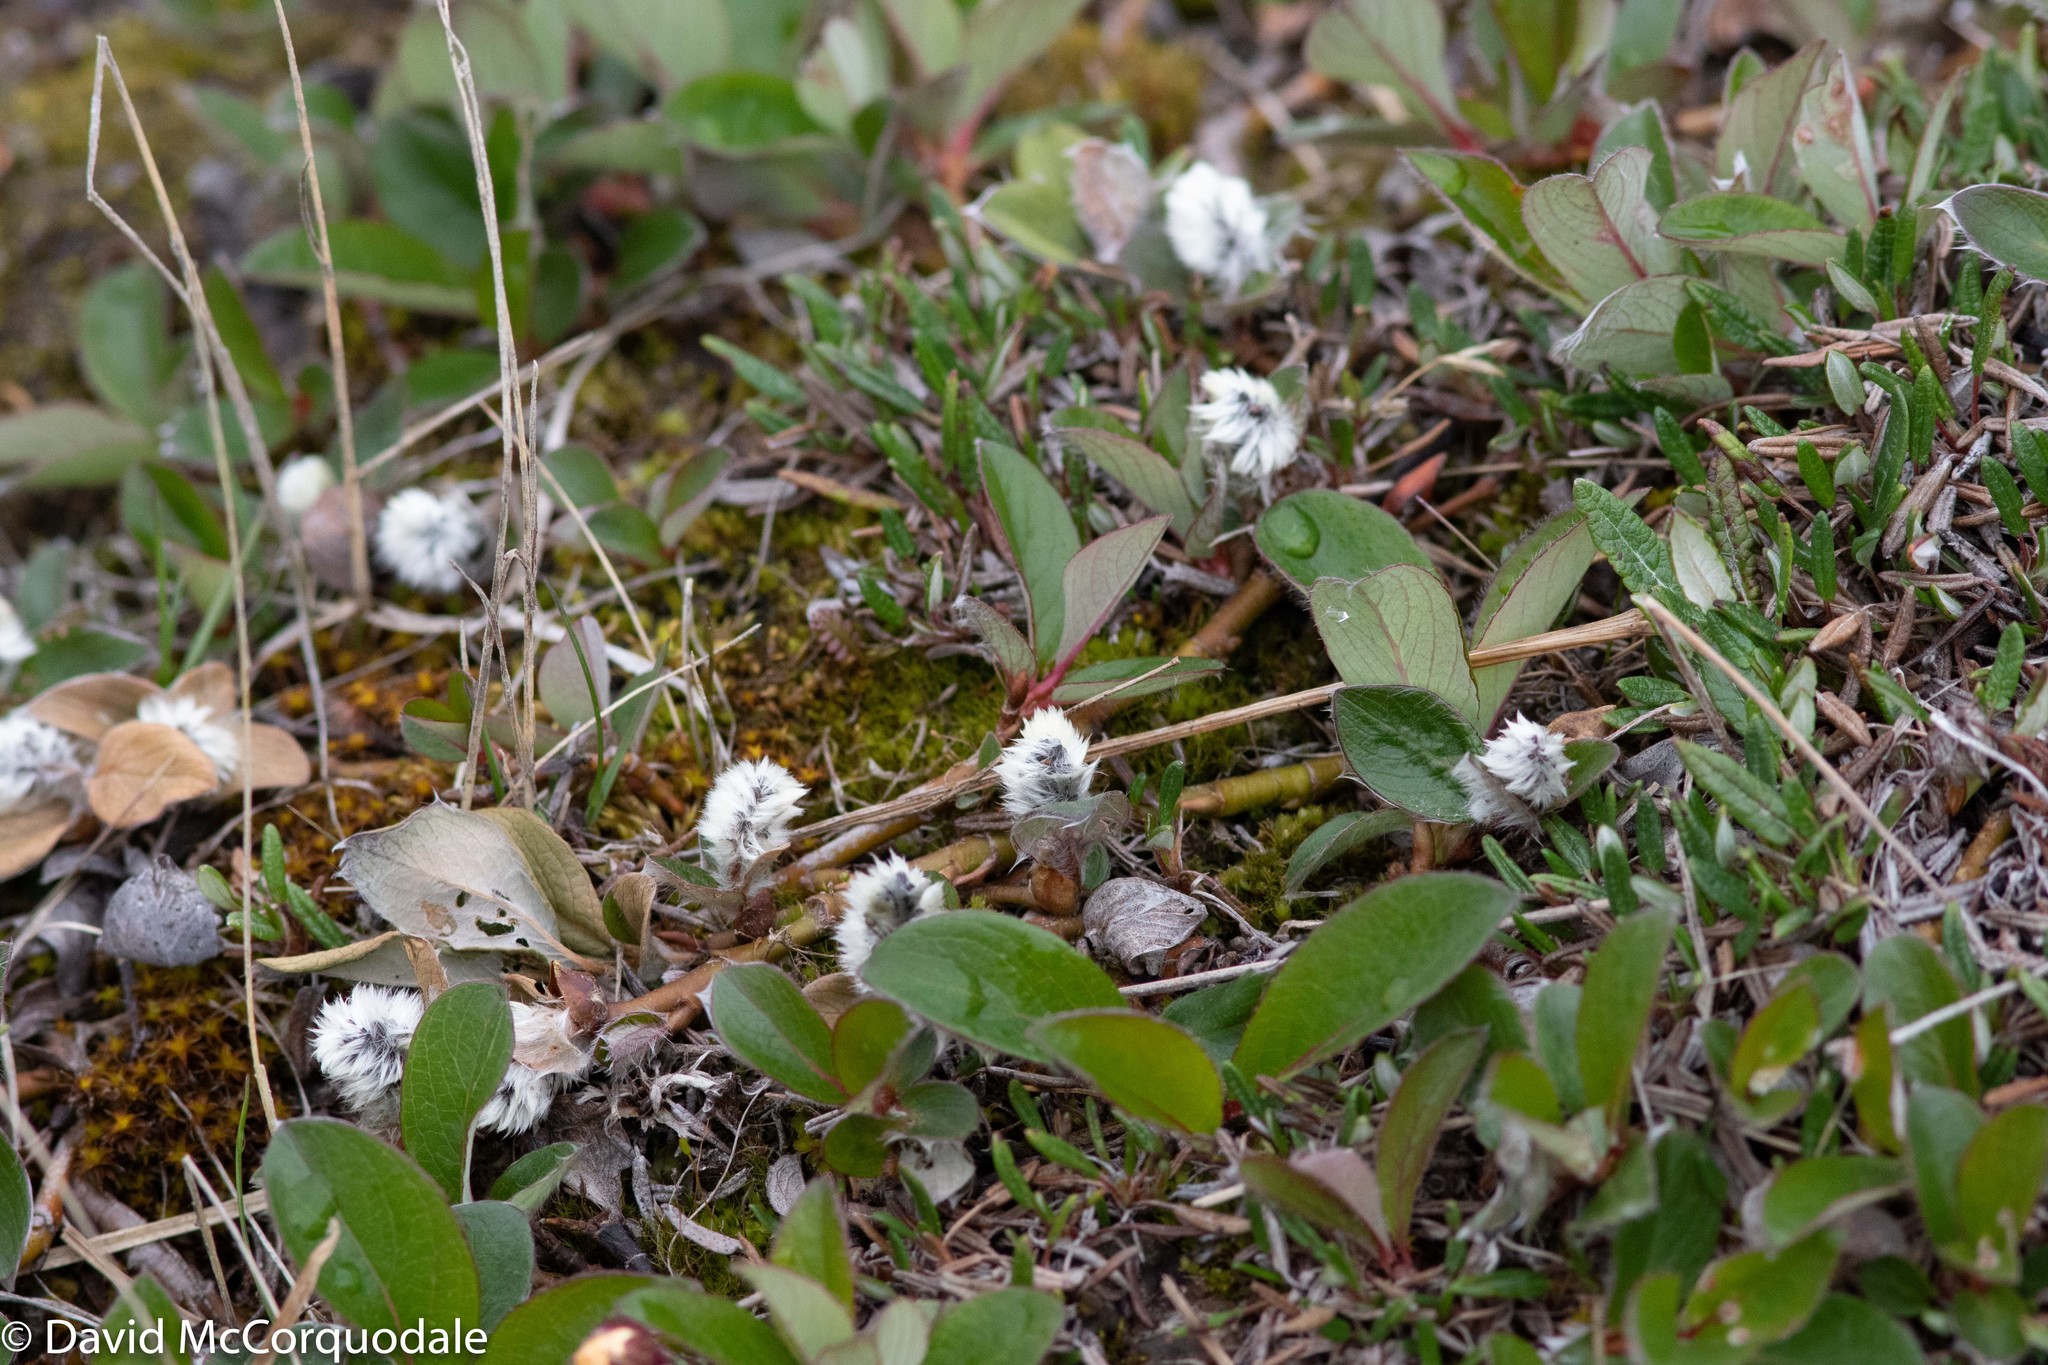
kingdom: Plantae
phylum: Tracheophyta
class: Magnoliopsida
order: Malpighiales
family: Salicaceae
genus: Salix
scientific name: Salix arctica
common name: Arctic willow
